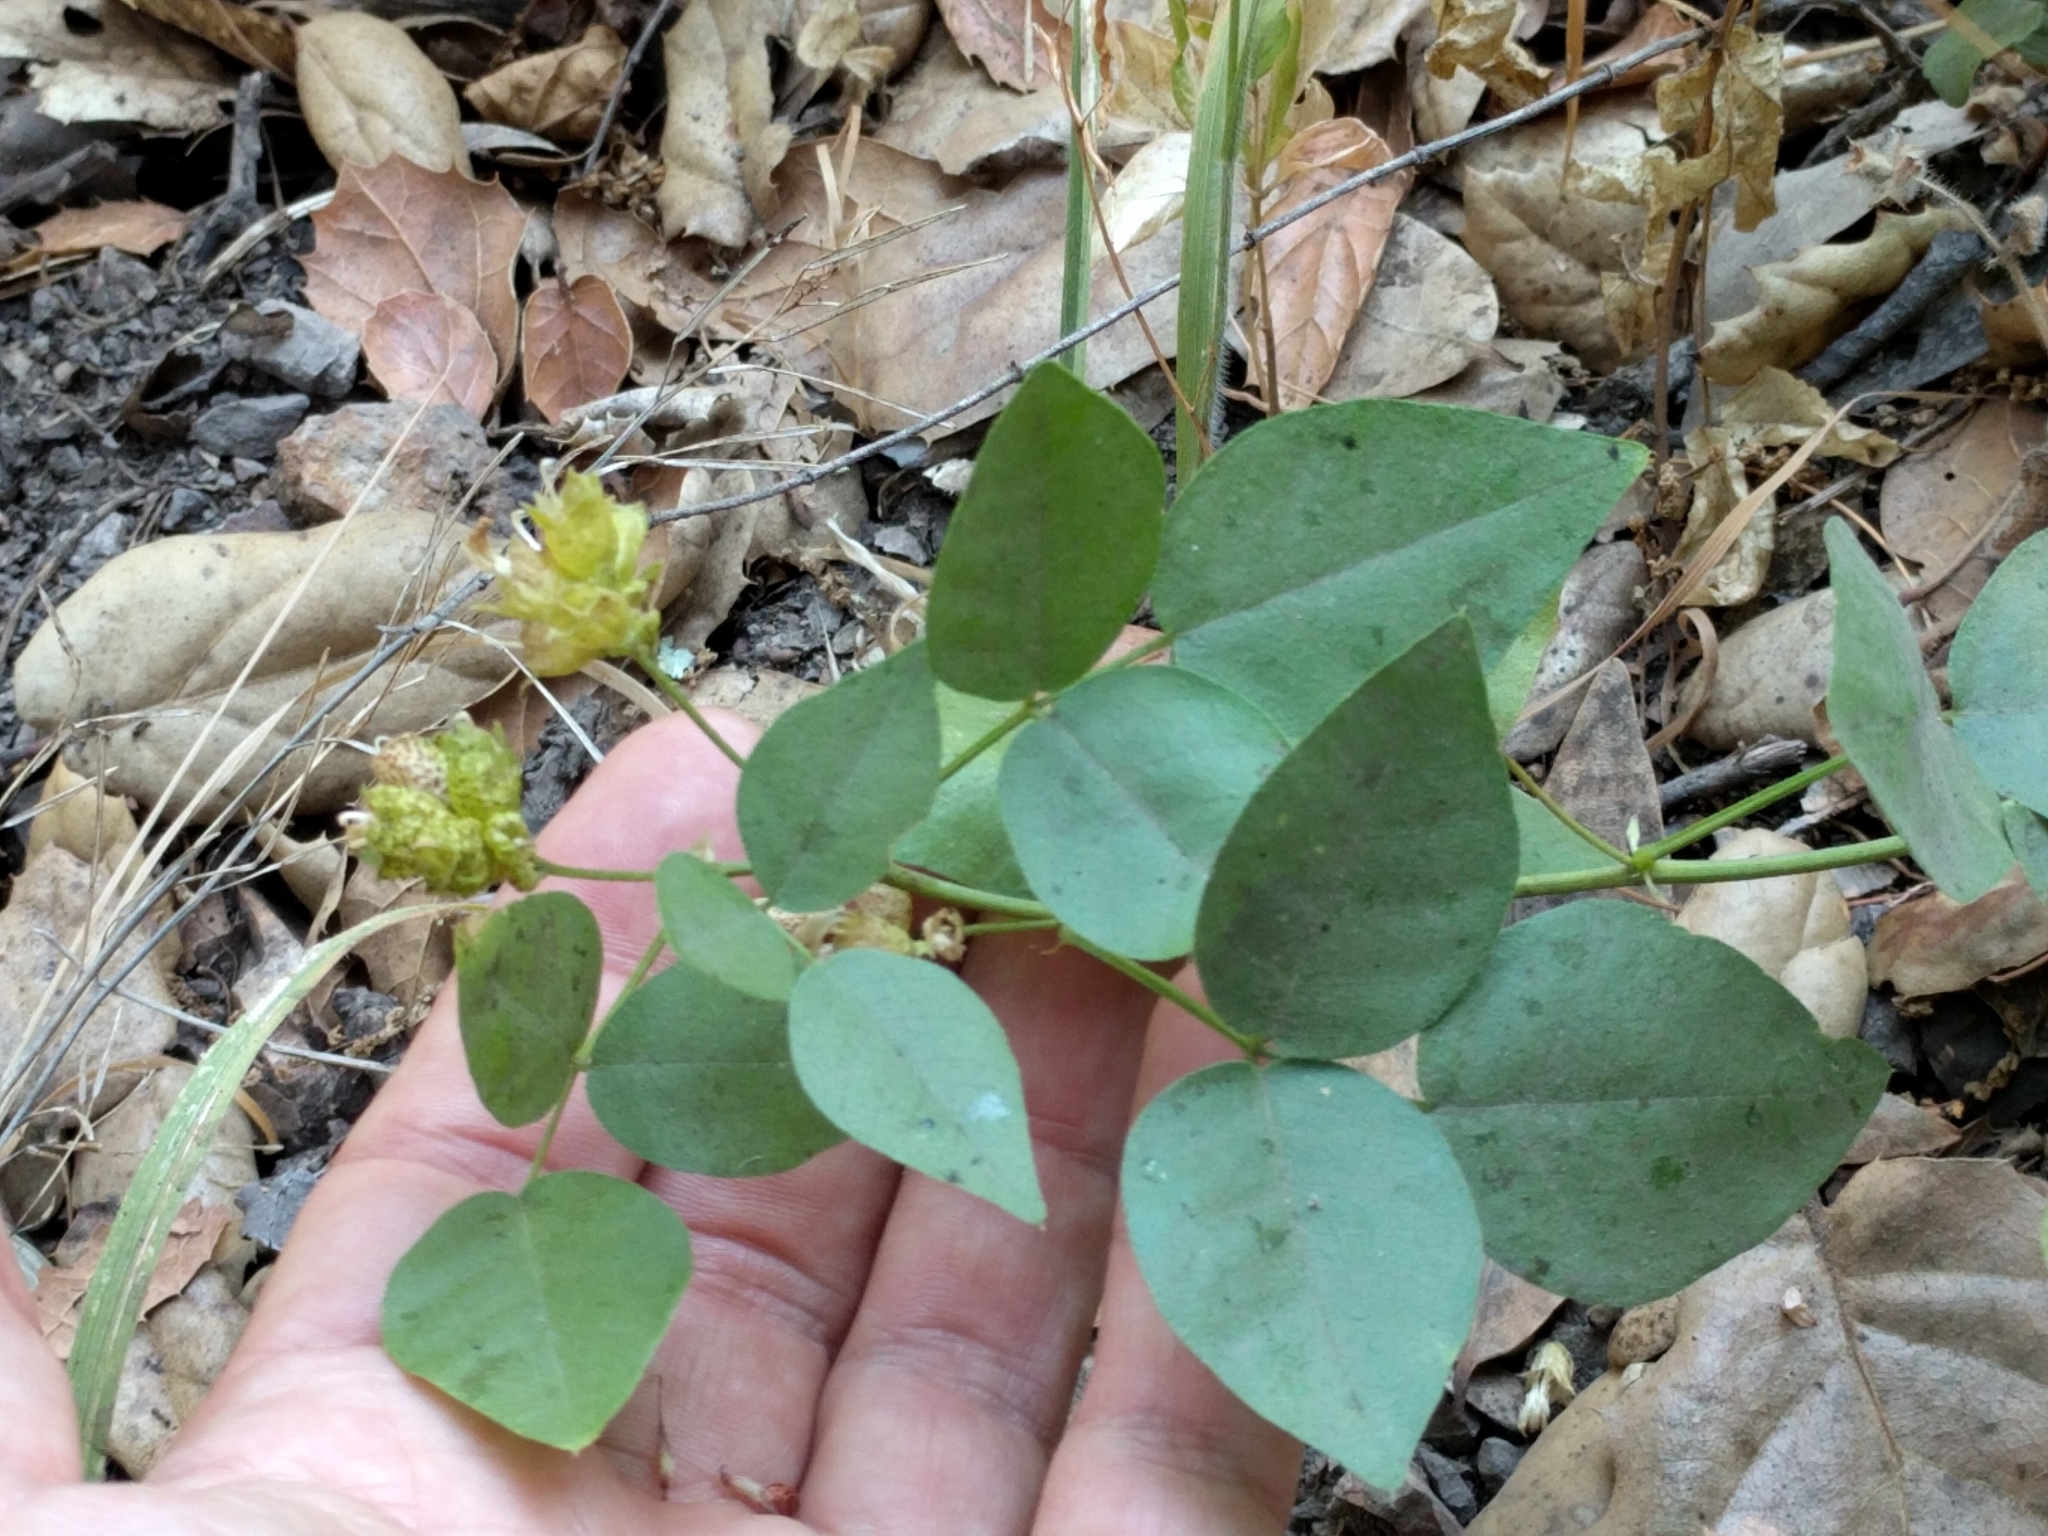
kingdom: Plantae
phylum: Tracheophyta
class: Magnoliopsida
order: Fabales
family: Fabaceae
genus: Rupertia
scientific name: Rupertia physodes
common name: California-tea
